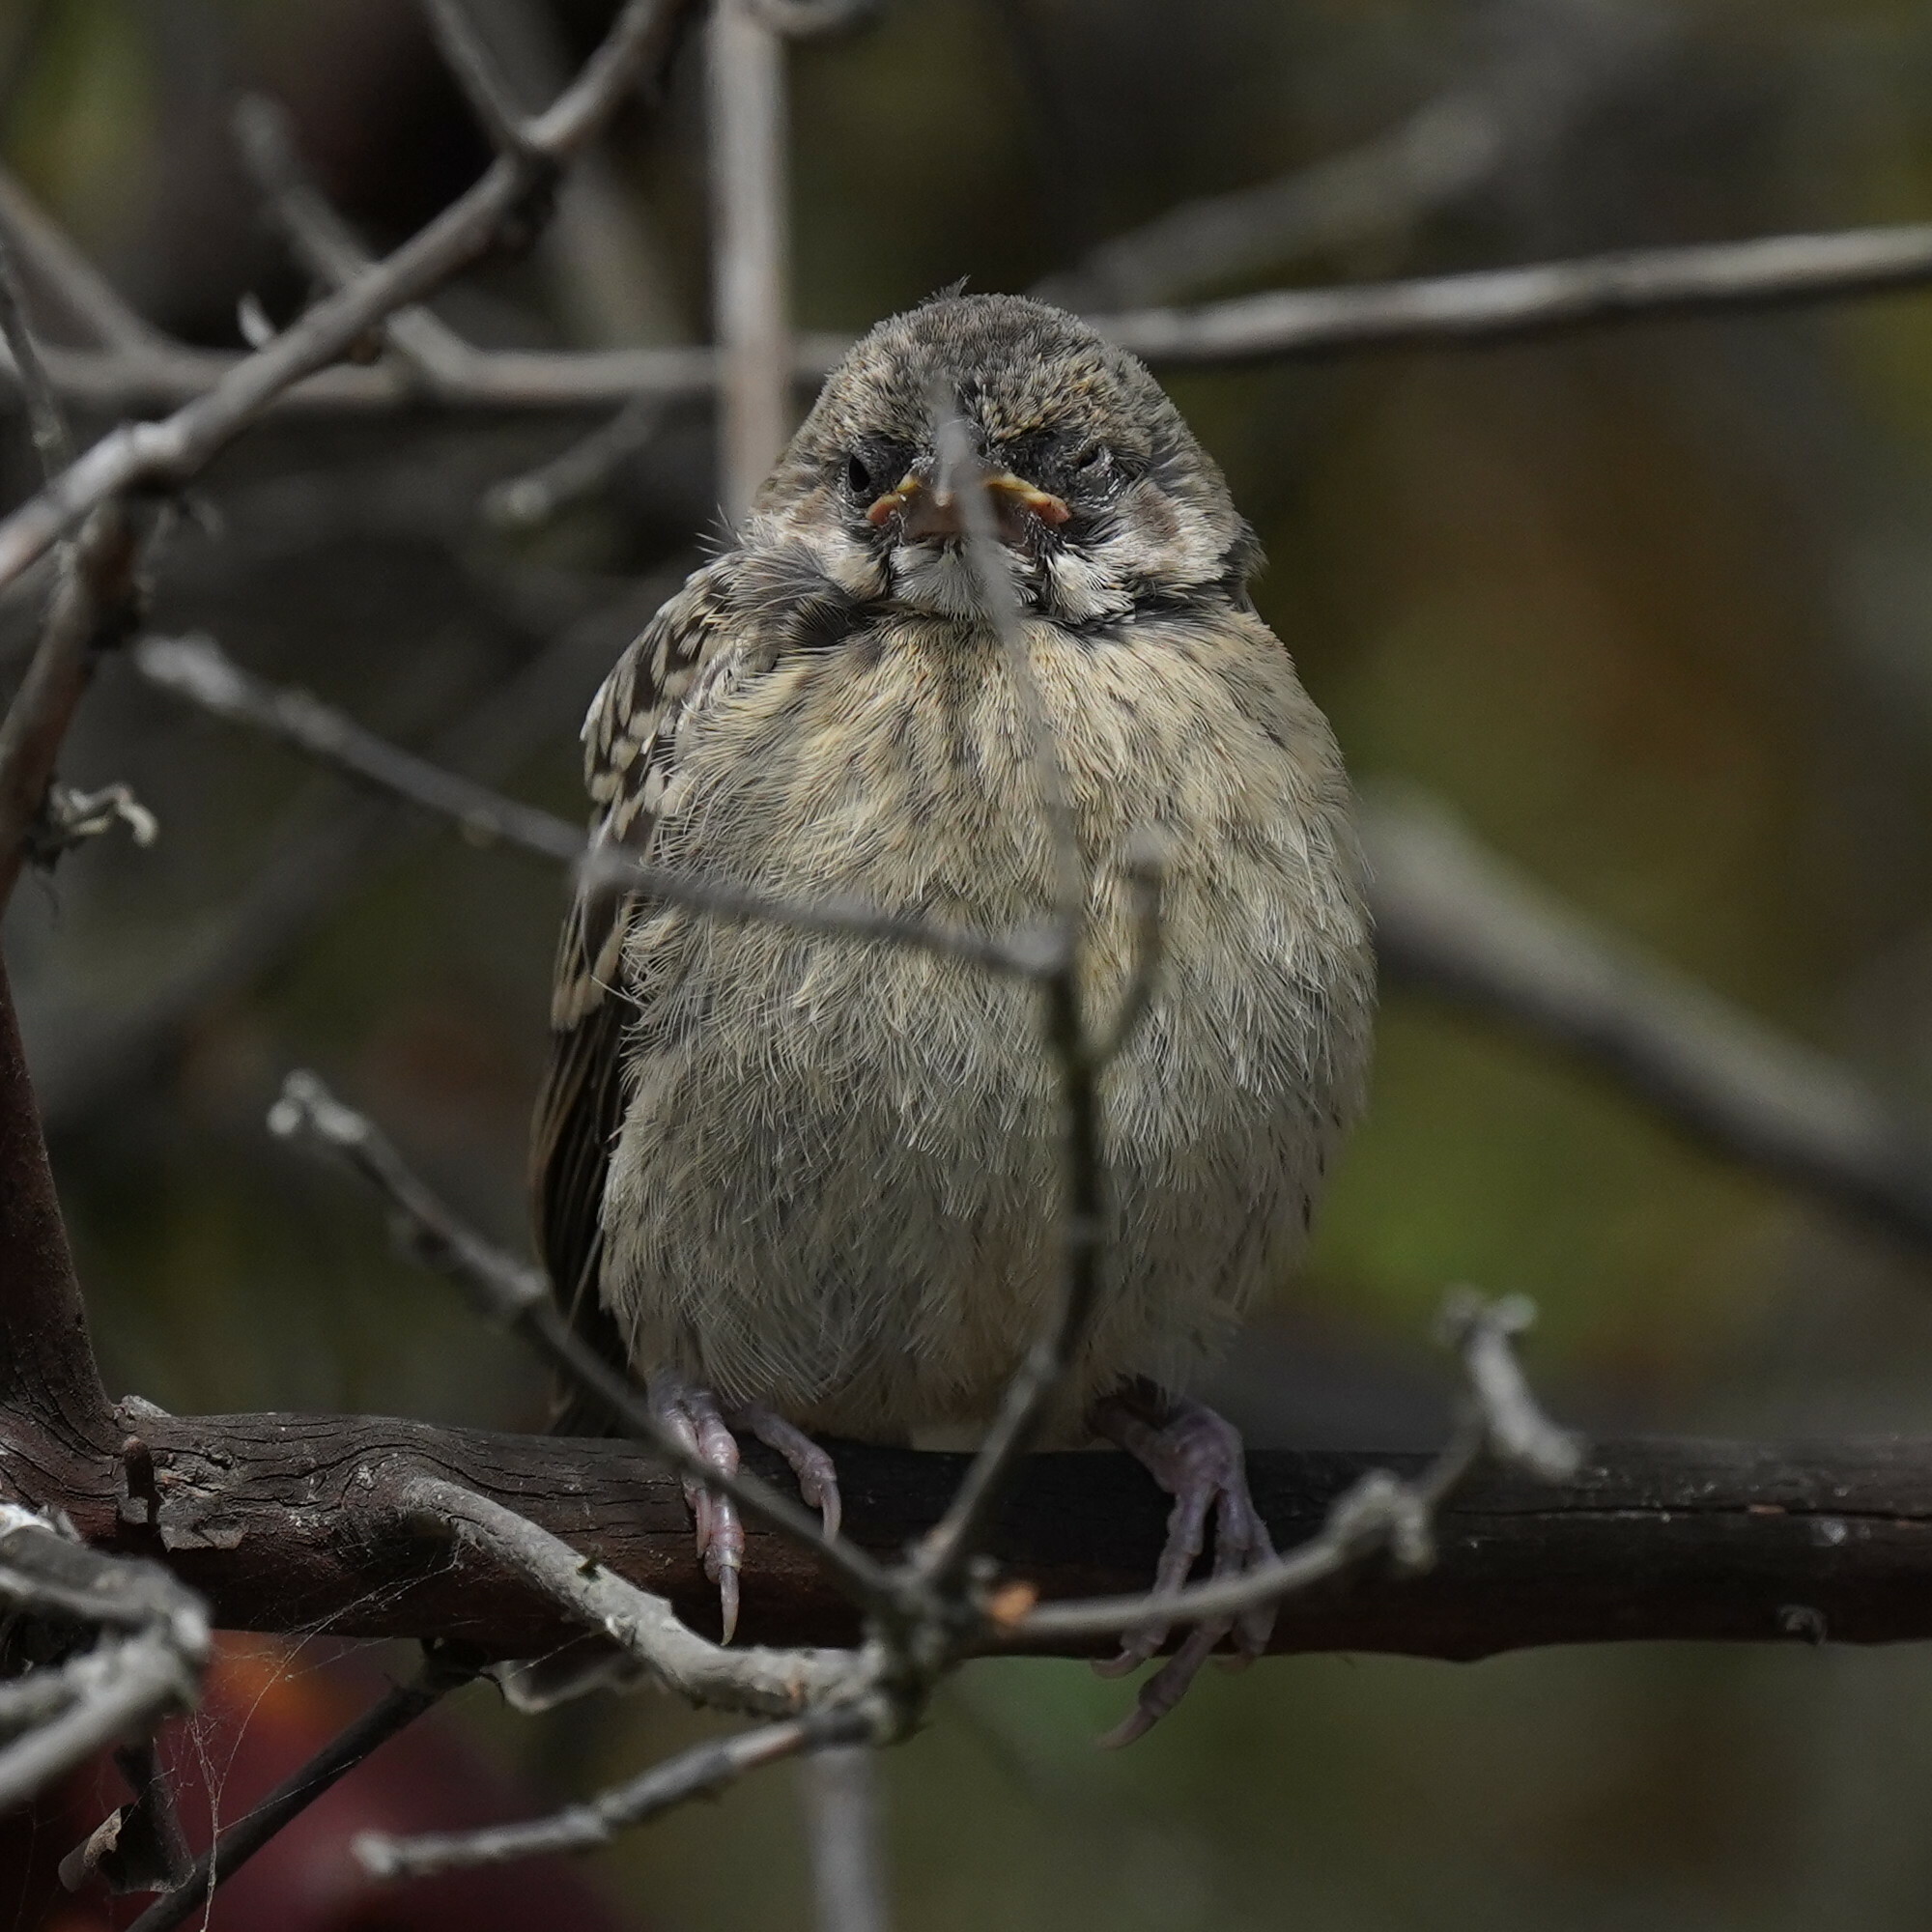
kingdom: Animalia
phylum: Chordata
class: Aves
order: Passeriformes
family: Icteridae
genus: Molothrus
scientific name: Molothrus ater
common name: Brown-headed cowbird
